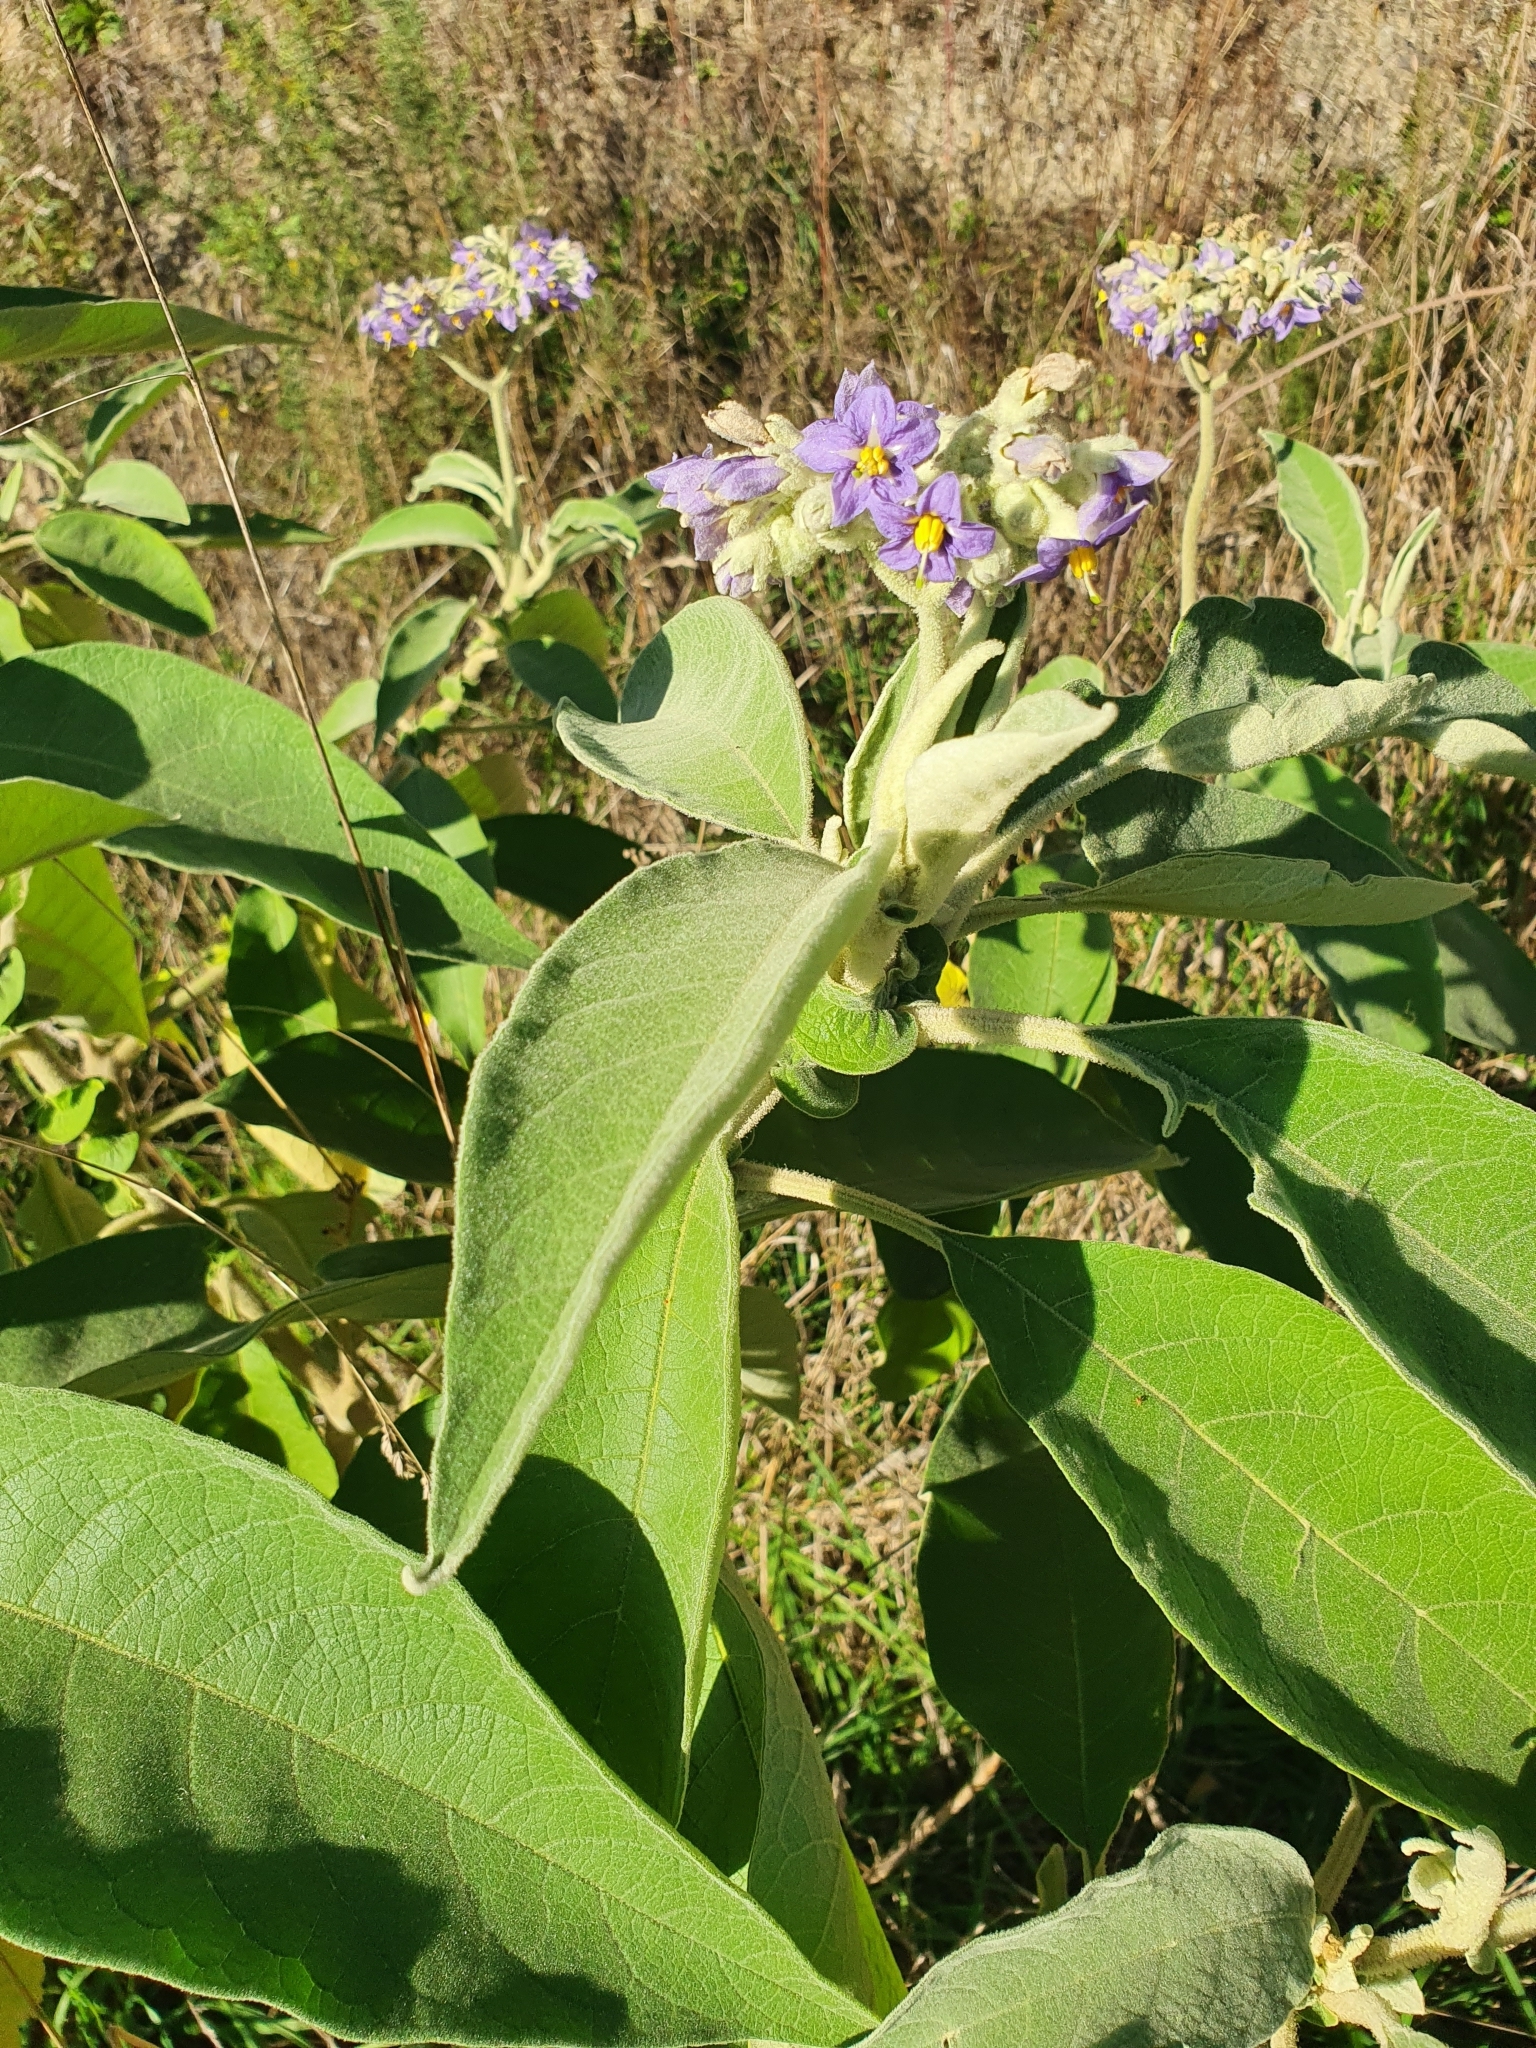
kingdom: Plantae
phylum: Tracheophyta
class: Magnoliopsida
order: Solanales
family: Solanaceae
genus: Solanum
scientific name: Solanum mauritianum
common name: Earleaf nightshade
